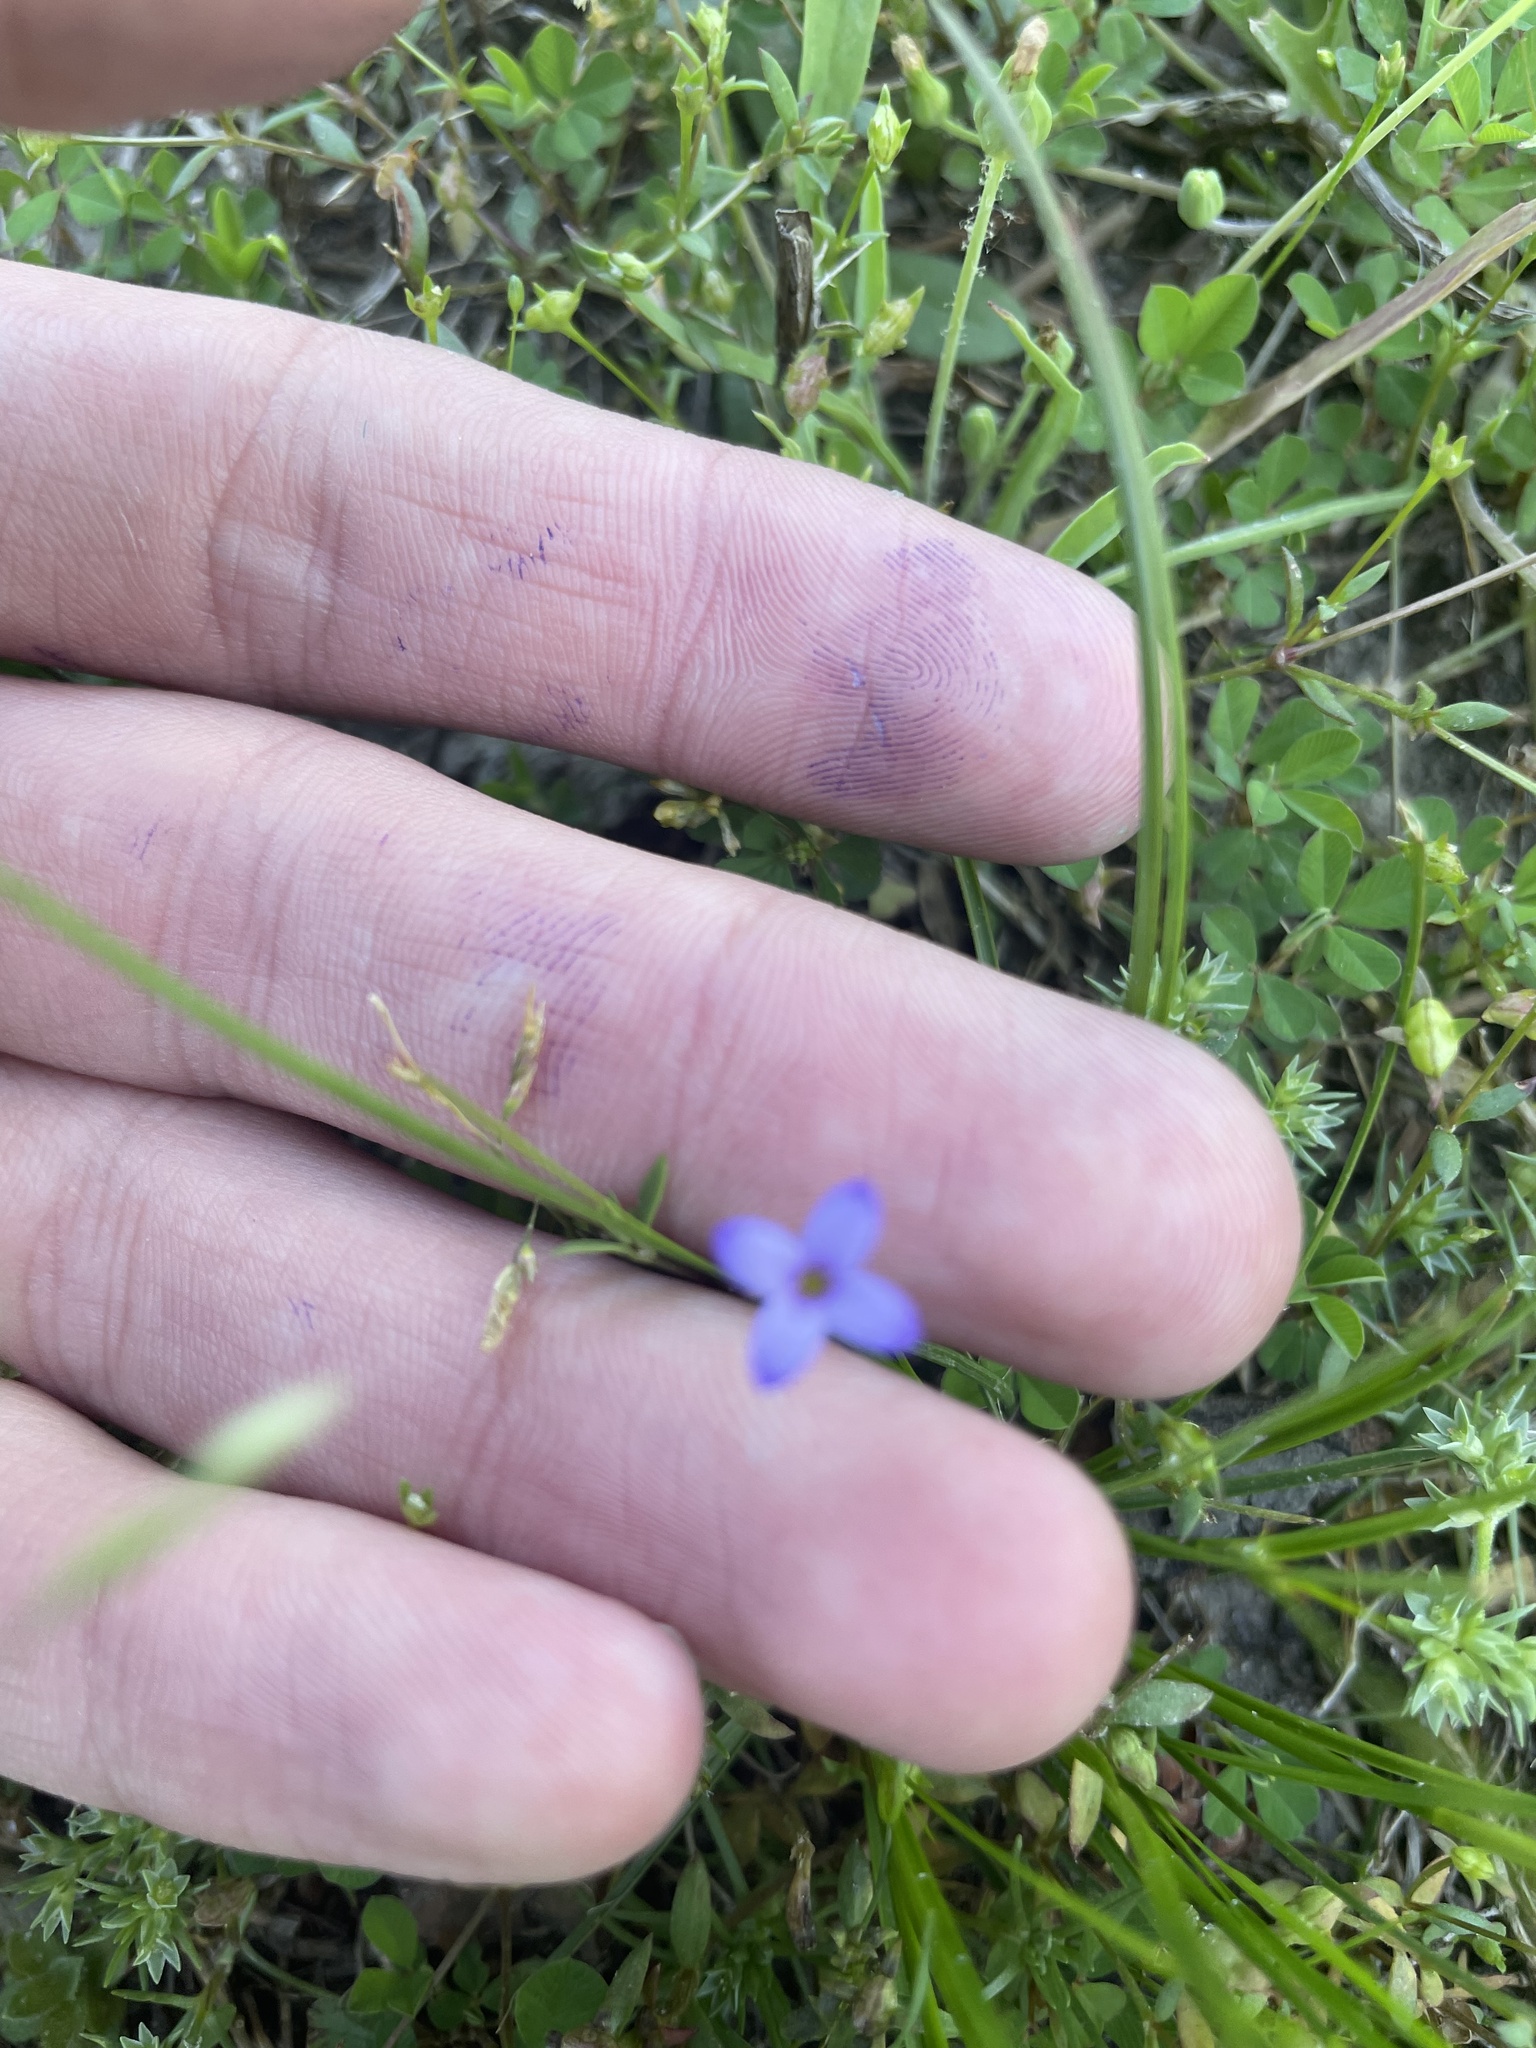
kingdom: Plantae
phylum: Tracheophyta
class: Magnoliopsida
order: Gentianales
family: Rubiaceae
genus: Houstonia
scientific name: Houstonia pusilla
